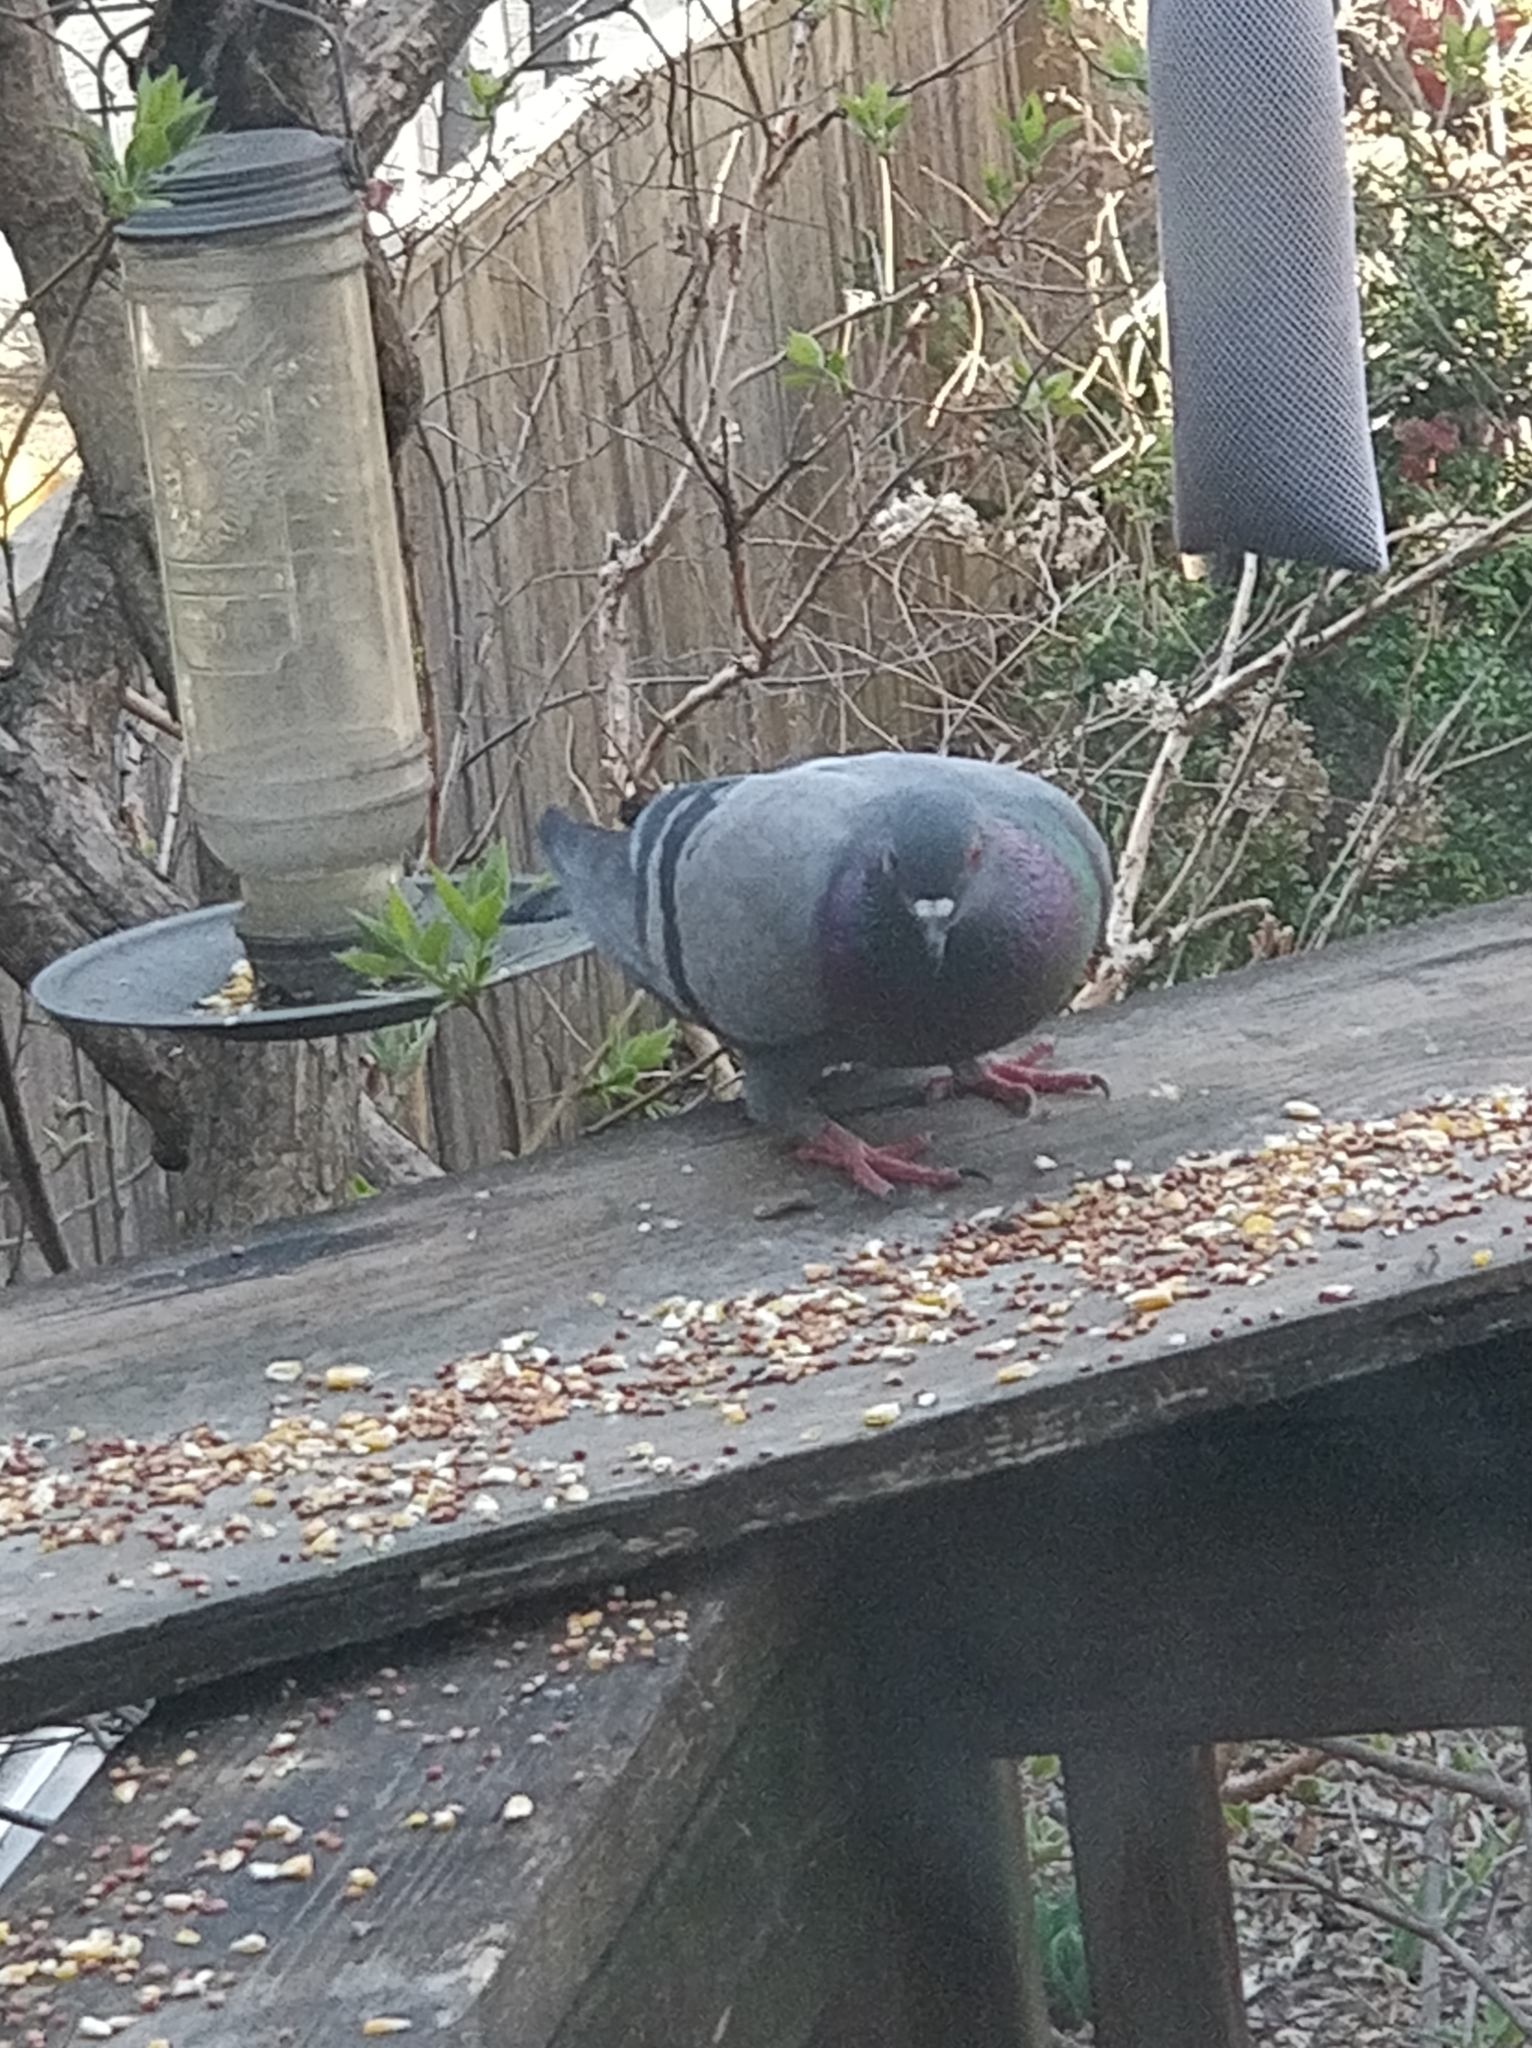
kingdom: Animalia
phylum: Chordata
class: Aves
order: Columbiformes
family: Columbidae
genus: Columba
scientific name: Columba livia
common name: Rock pigeon
